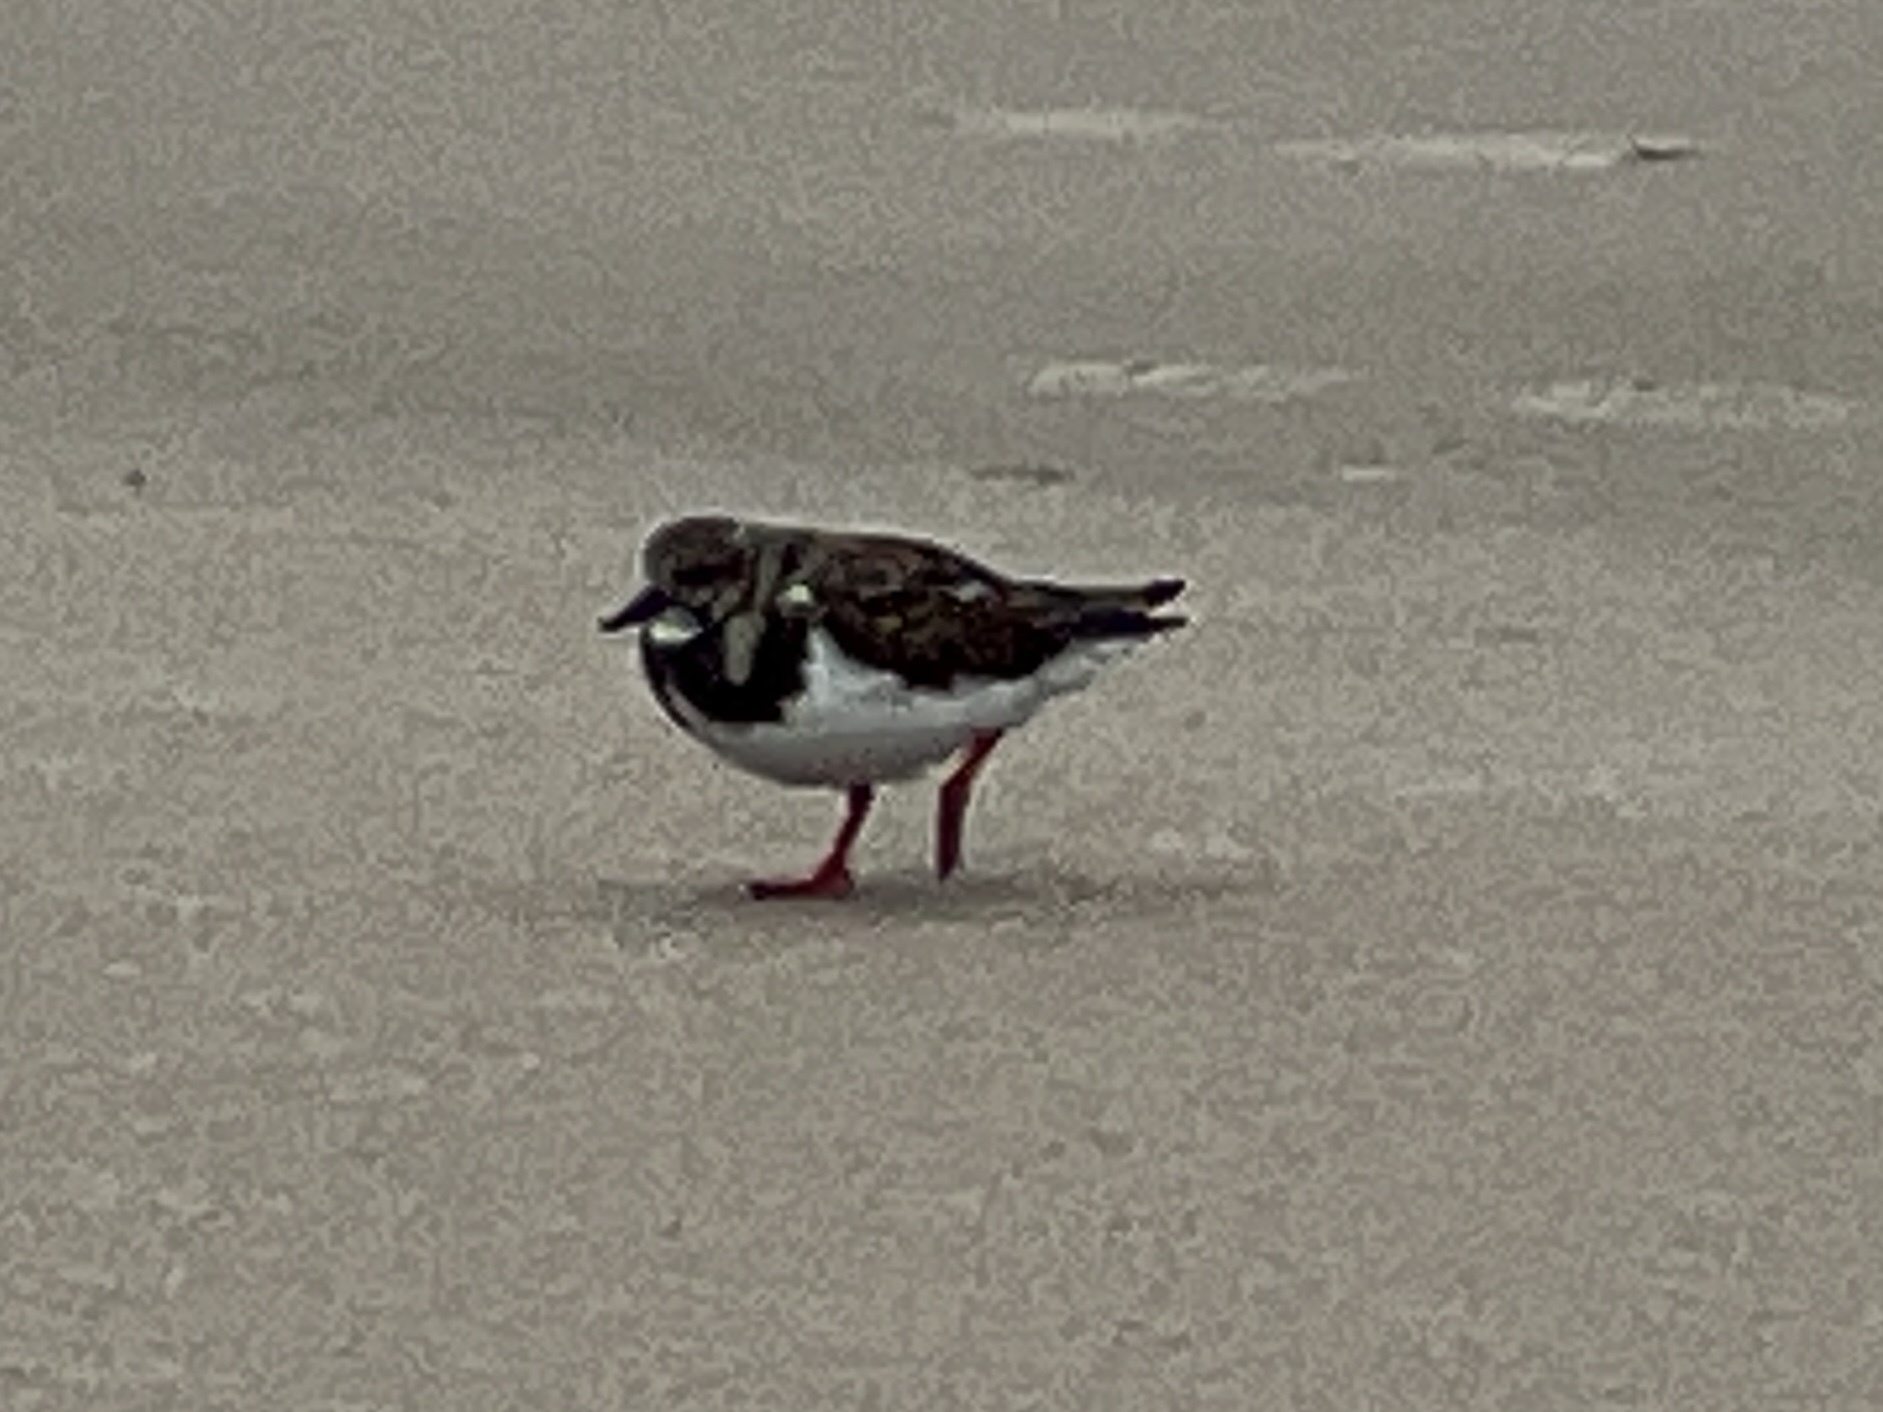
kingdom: Animalia
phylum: Chordata
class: Aves
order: Charadriiformes
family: Scolopacidae
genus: Arenaria
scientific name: Arenaria interpres
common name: Ruddy turnstone
